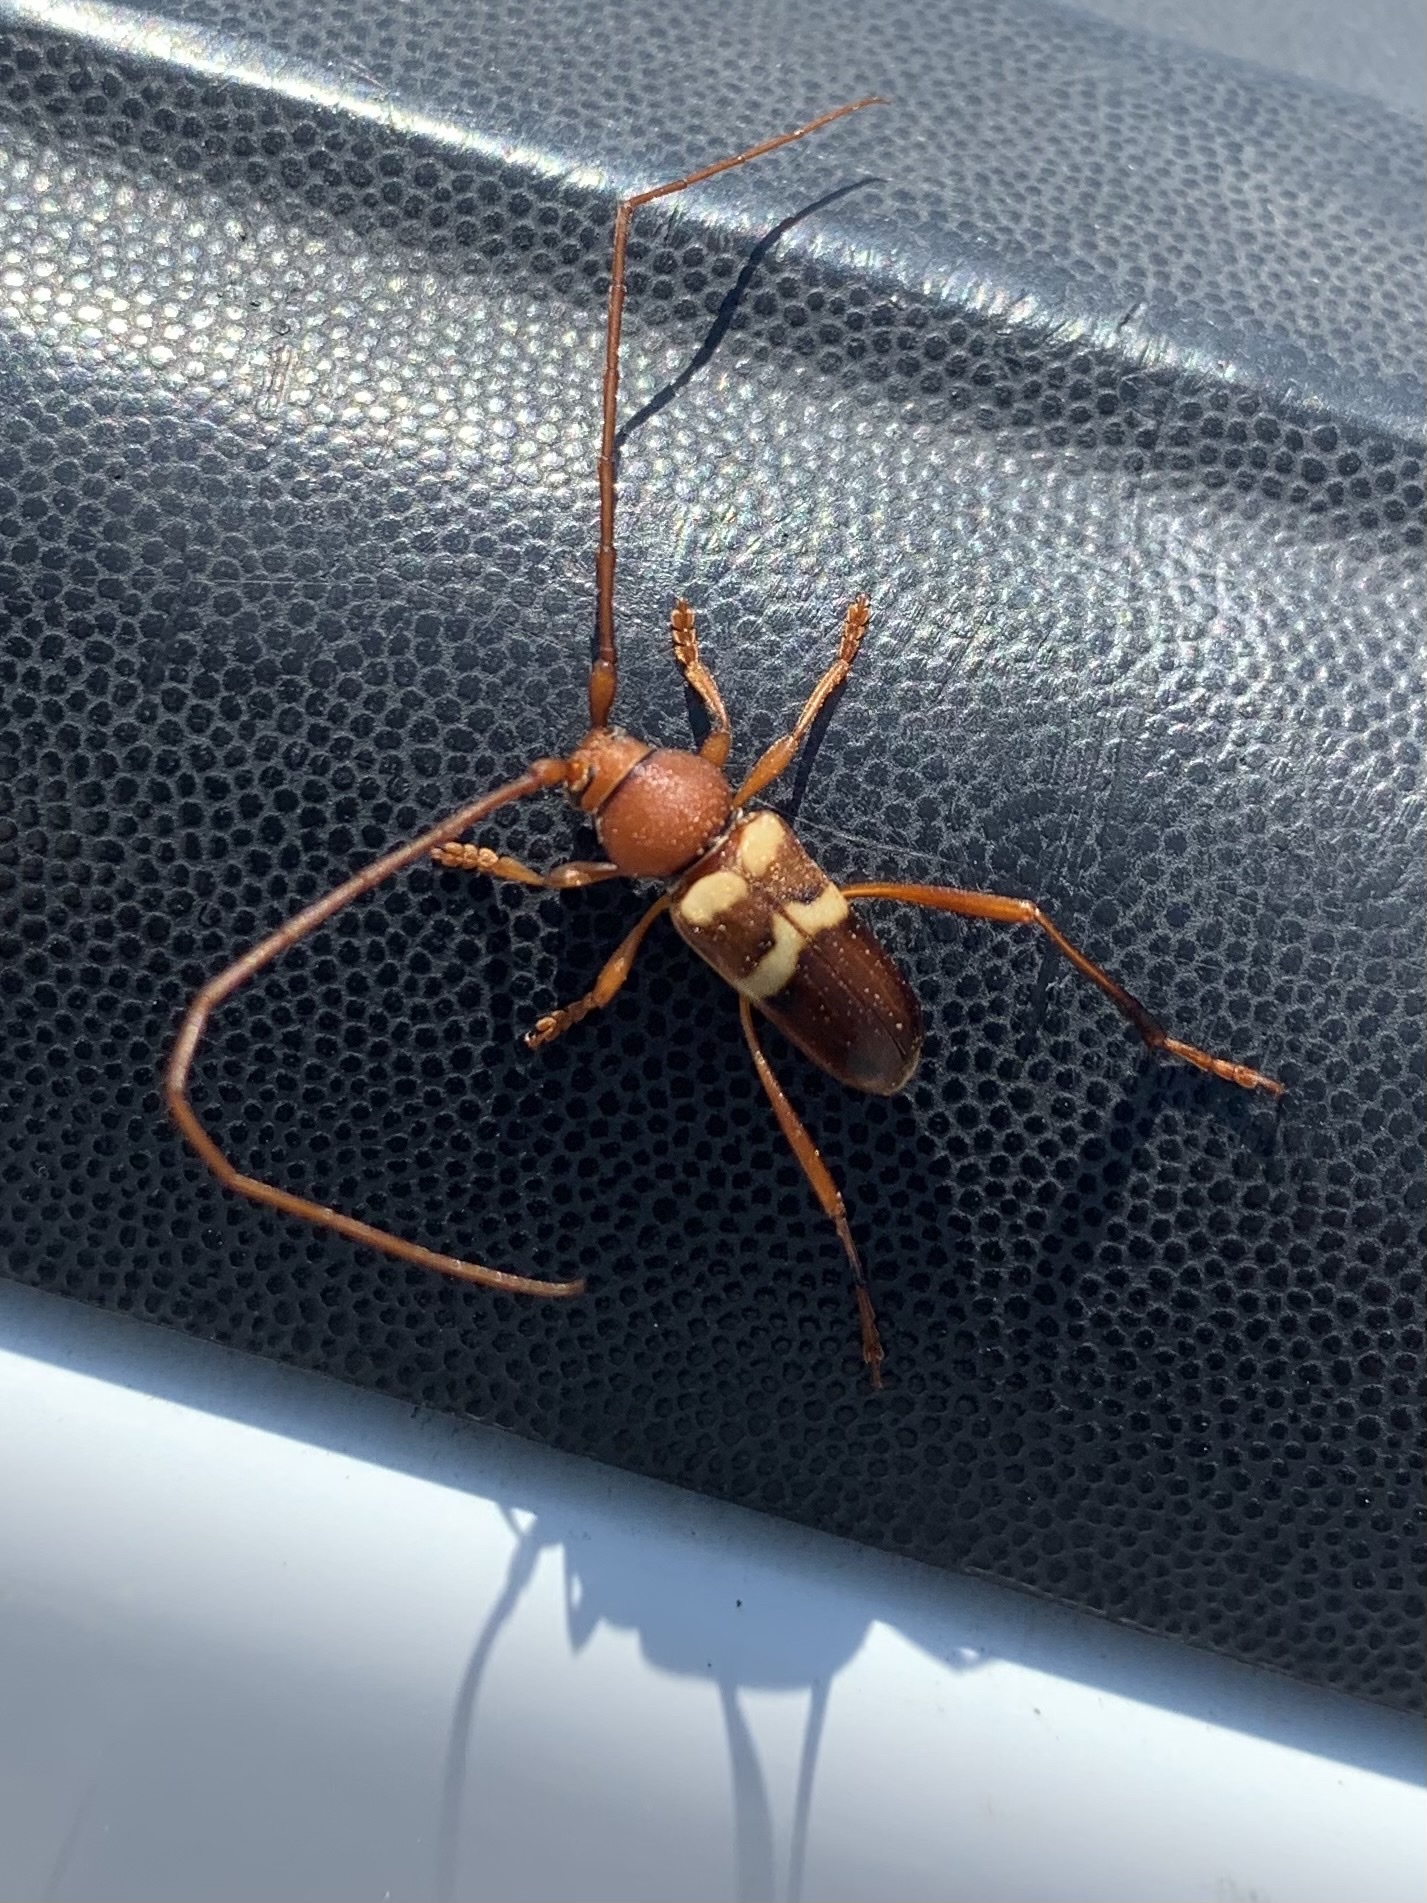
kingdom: Animalia
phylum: Arthropoda
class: Insecta
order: Coleoptera
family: Cerambycidae
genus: Aethecerinus
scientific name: Aethecerinus wilsonii
